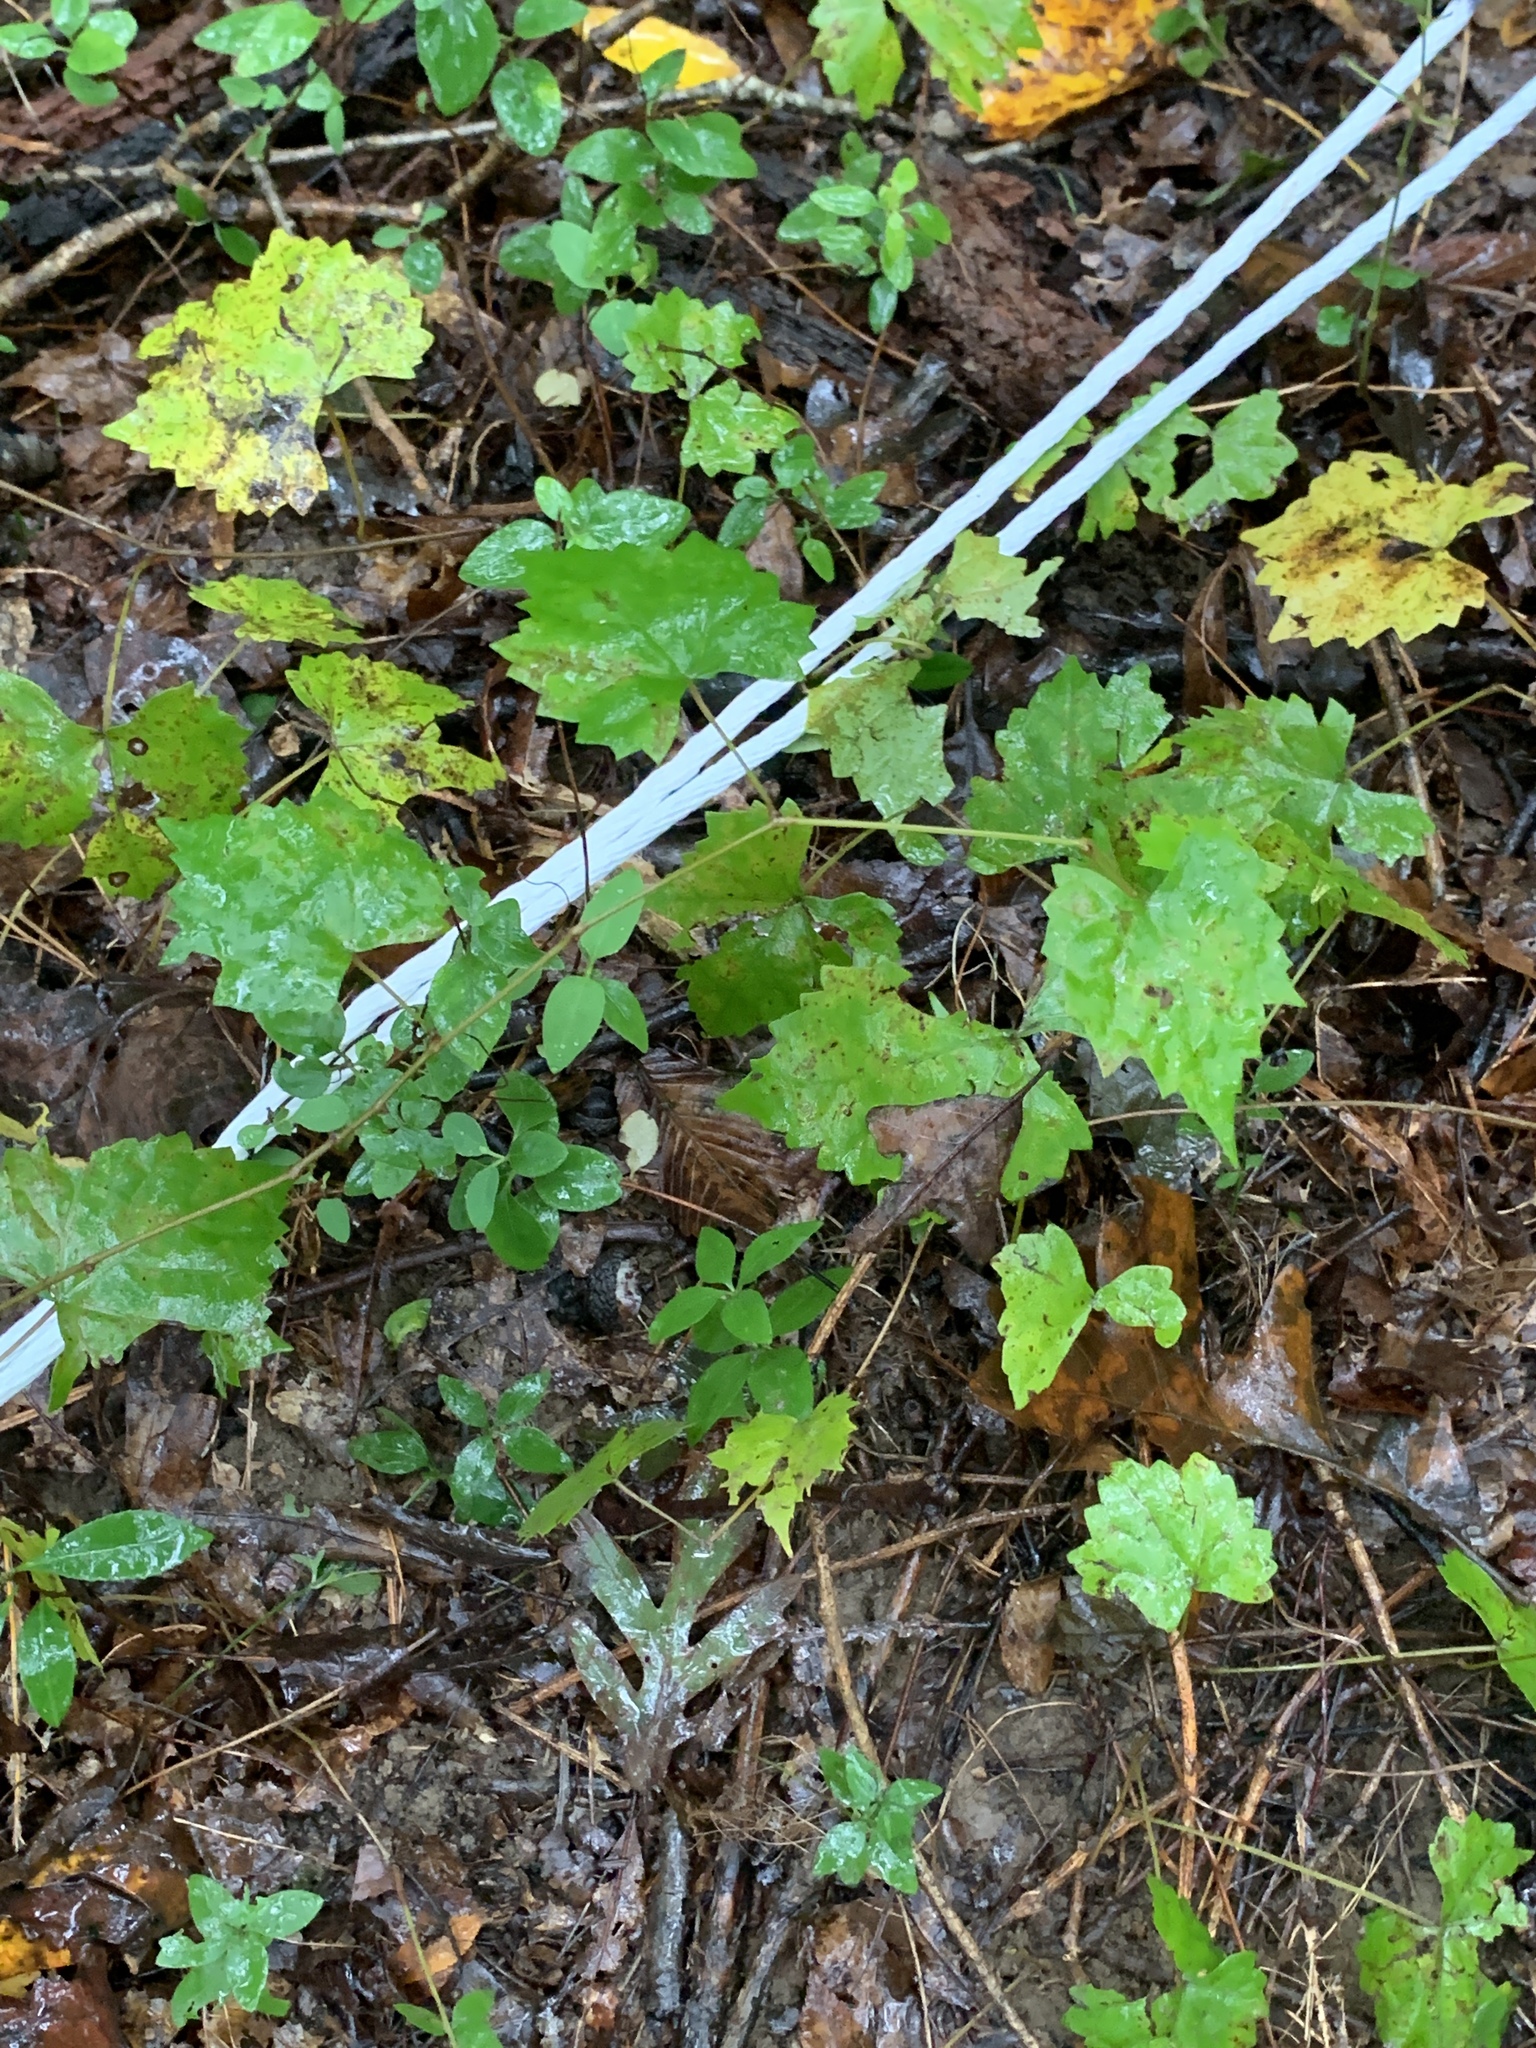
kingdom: Plantae
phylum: Tracheophyta
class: Magnoliopsida
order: Vitales
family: Vitaceae
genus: Vitis
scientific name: Vitis rotundifolia
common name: Muscadine grape
